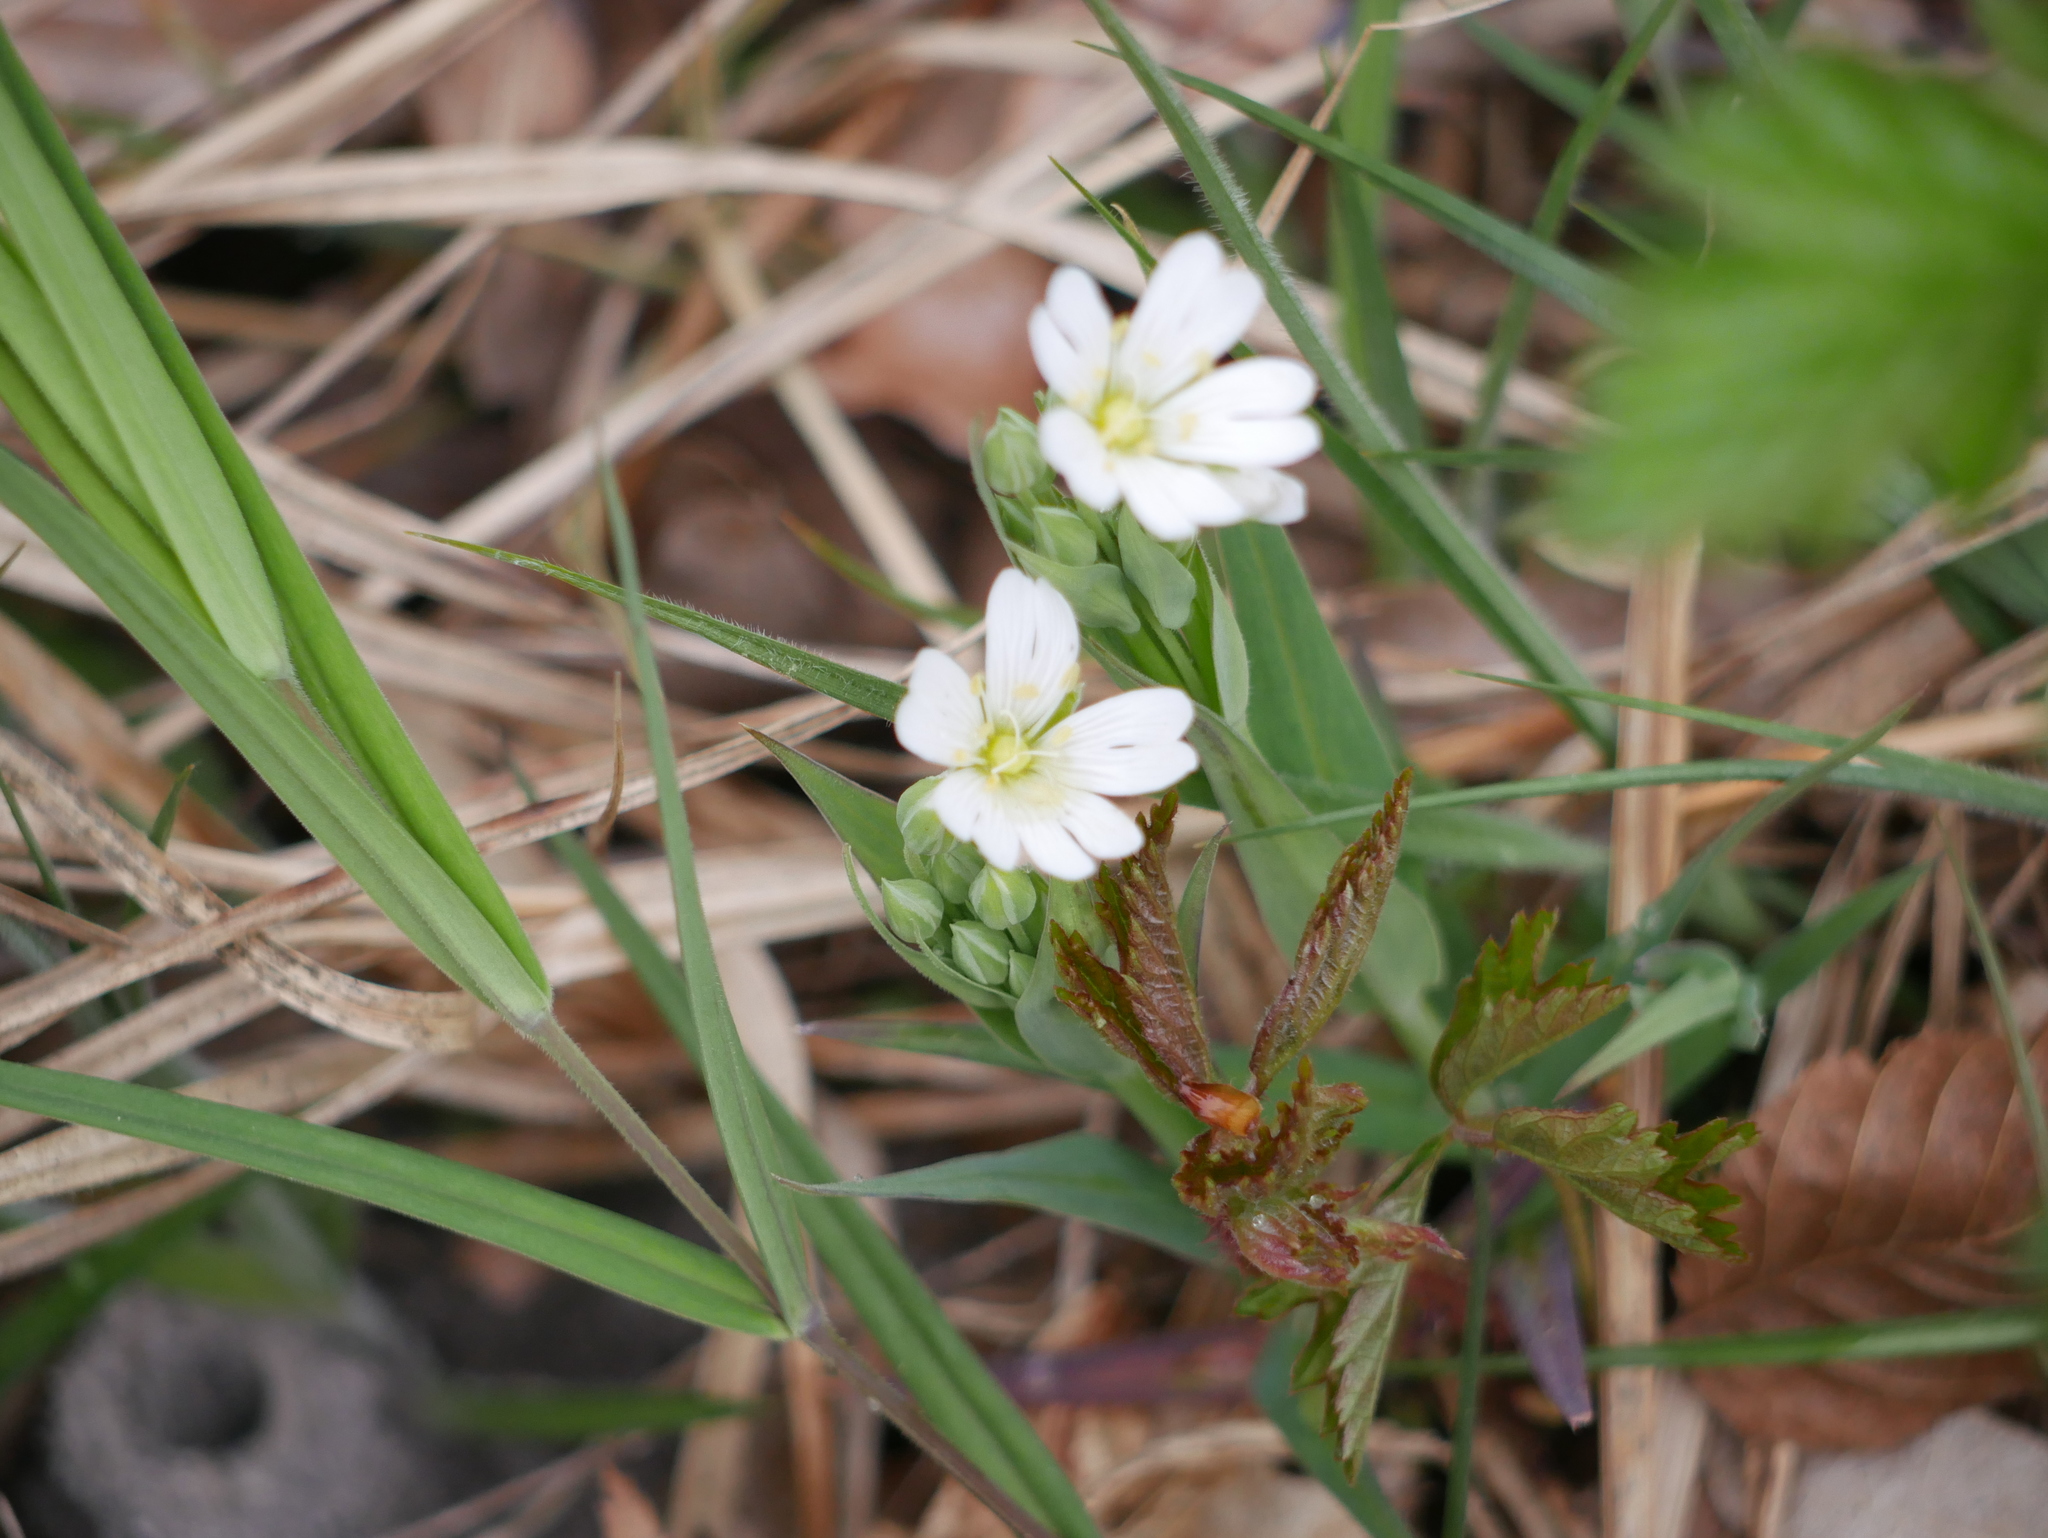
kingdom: Plantae
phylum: Tracheophyta
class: Magnoliopsida
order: Caryophyllales
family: Caryophyllaceae
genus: Rabelera
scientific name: Rabelera holostea
